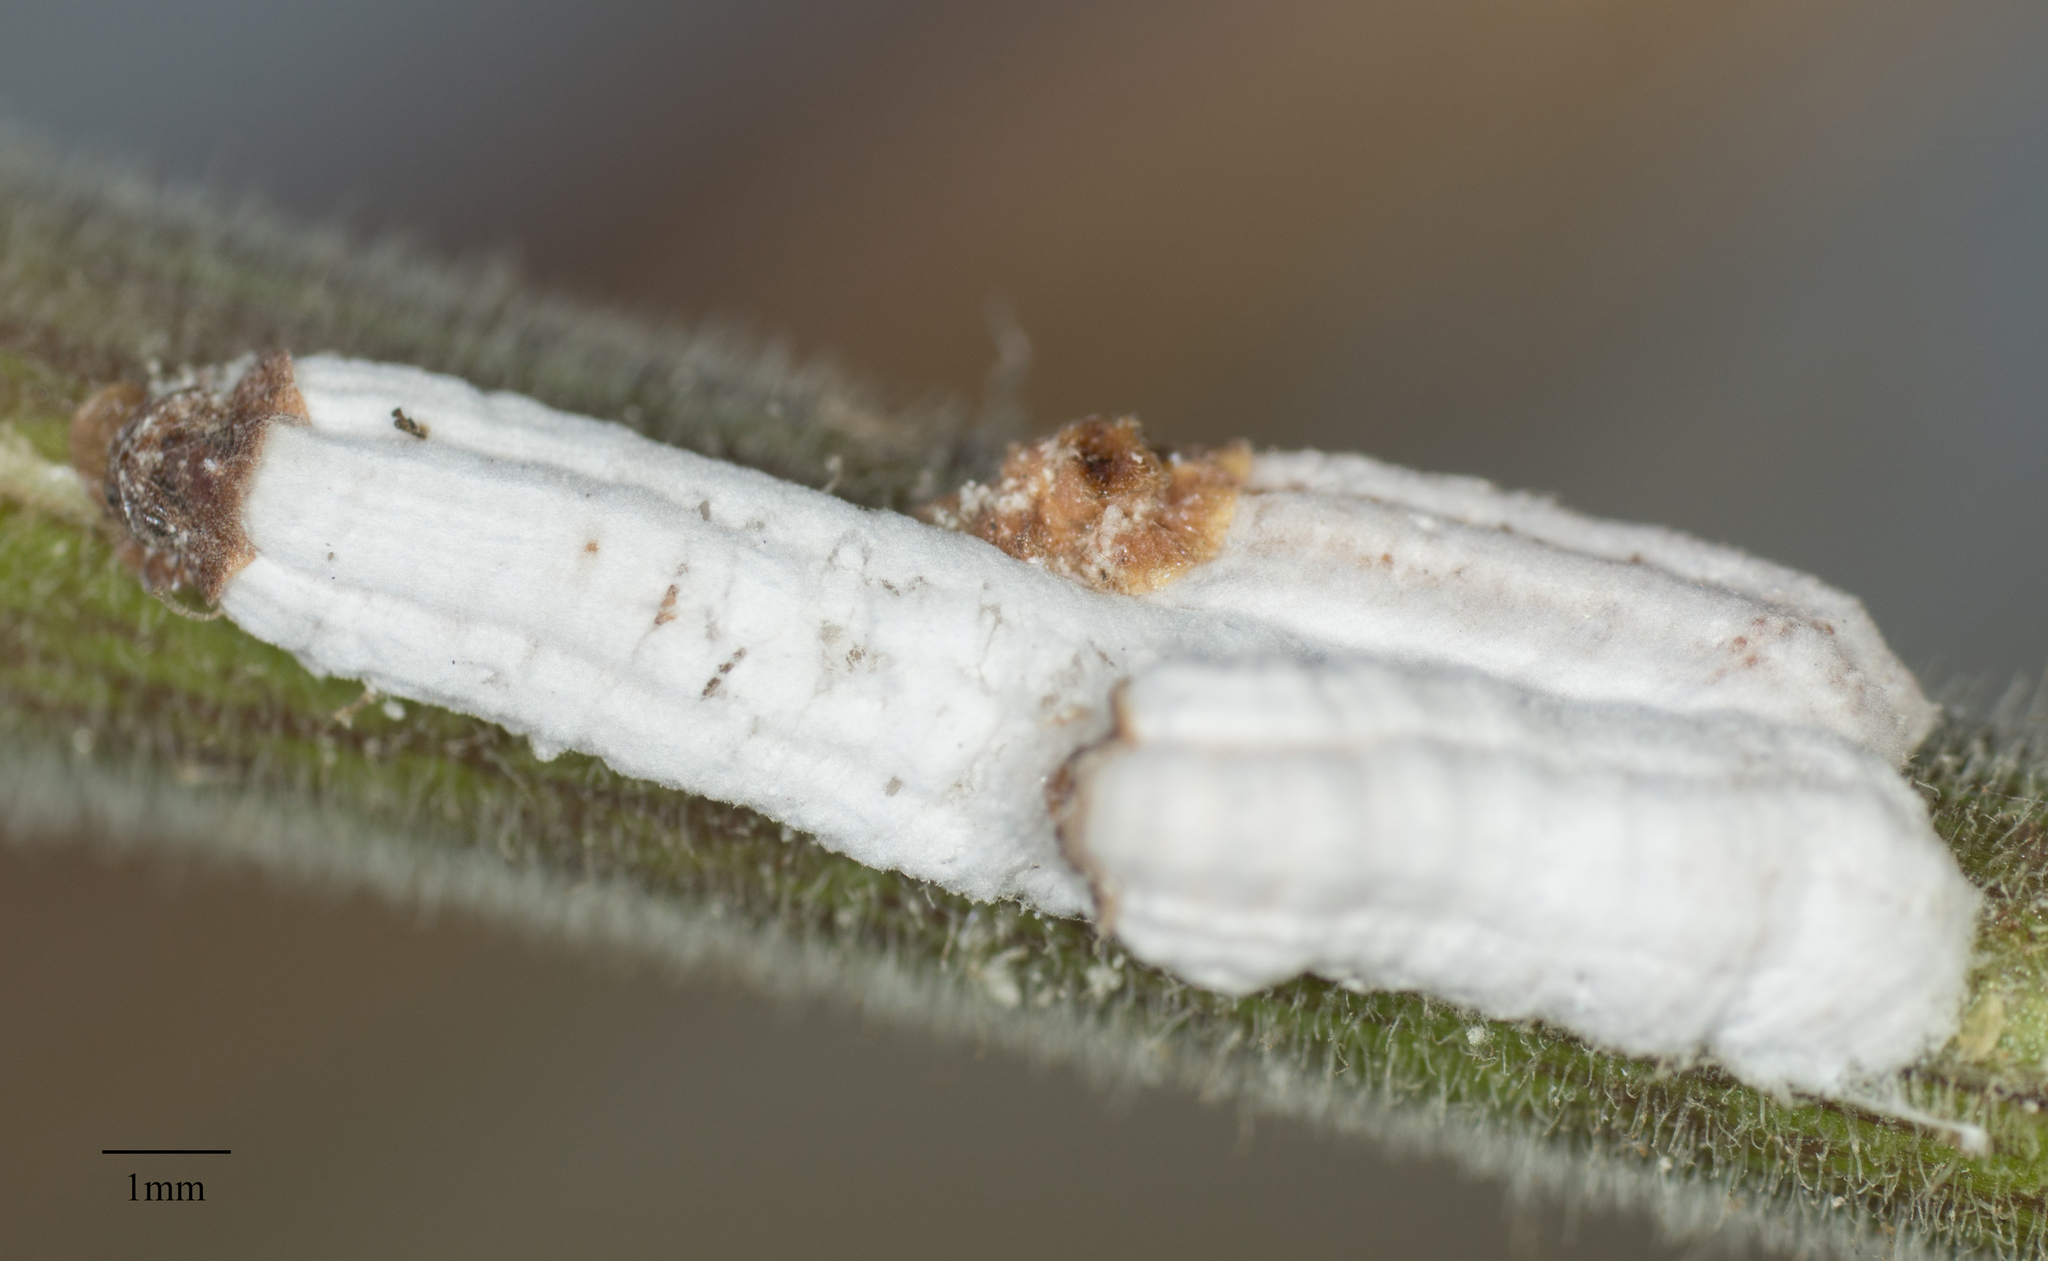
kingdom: Animalia
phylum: Arthropoda
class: Insecta
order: Hemiptera
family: Coccidae
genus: Pulvinaria
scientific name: Pulvinaria floccifera
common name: Cottony camellia scale
